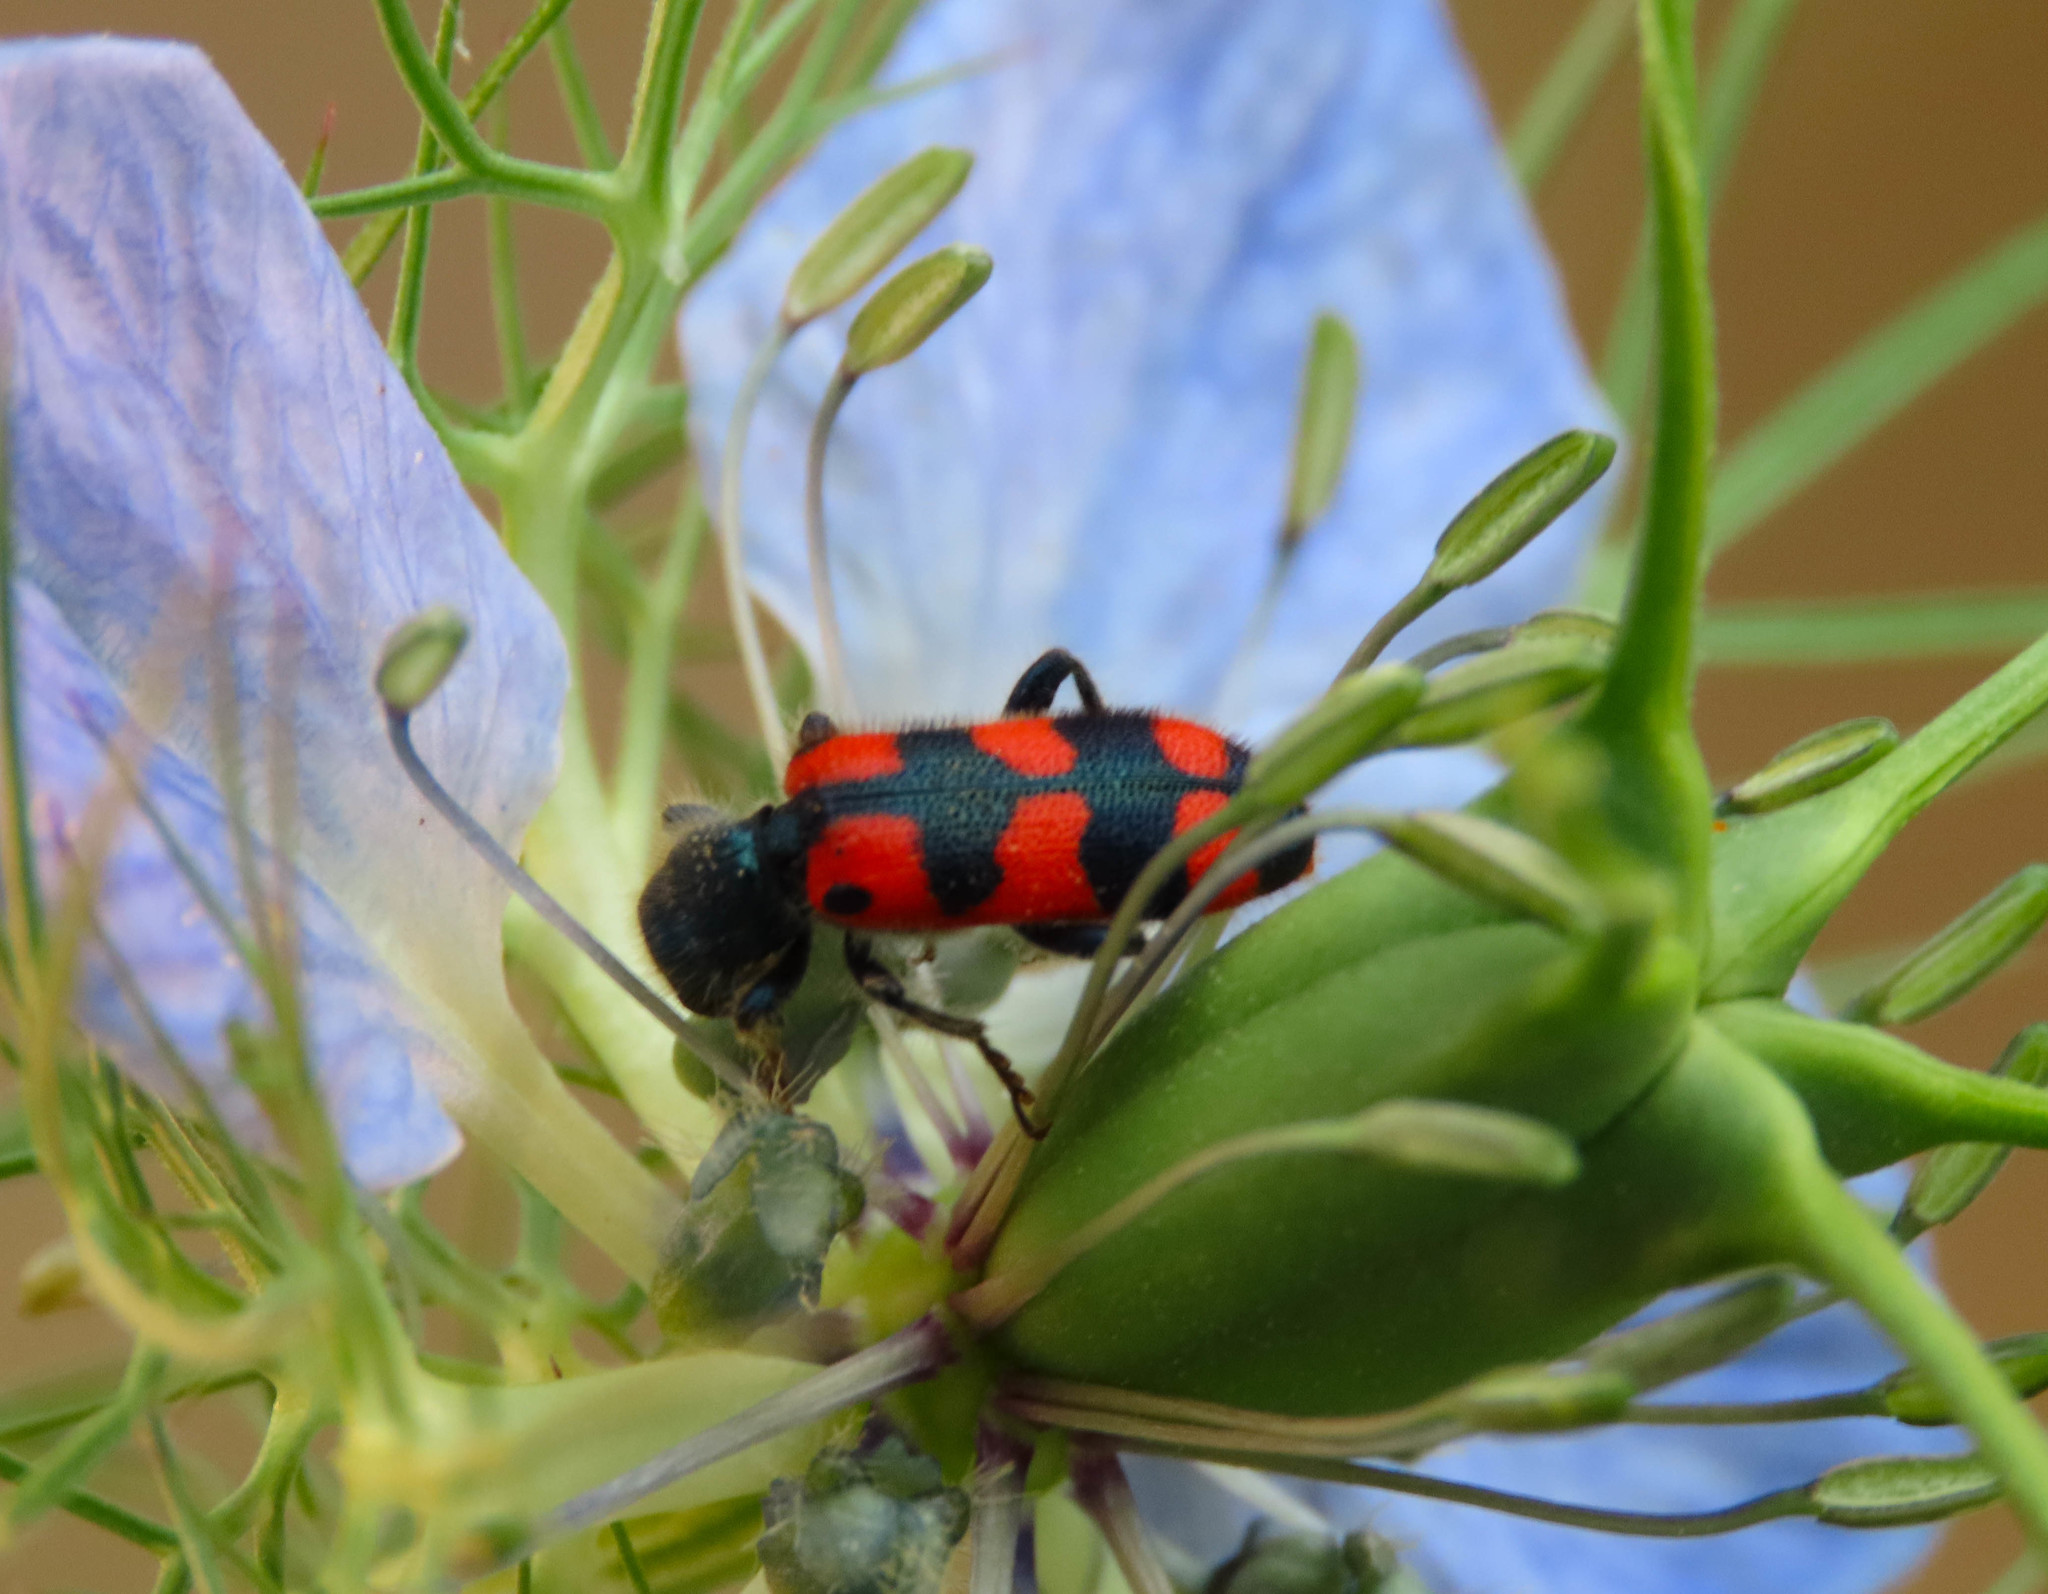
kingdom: Animalia
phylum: Arthropoda
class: Insecta
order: Coleoptera
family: Cleridae
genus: Trichodes
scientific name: Trichodes leucopsideus
